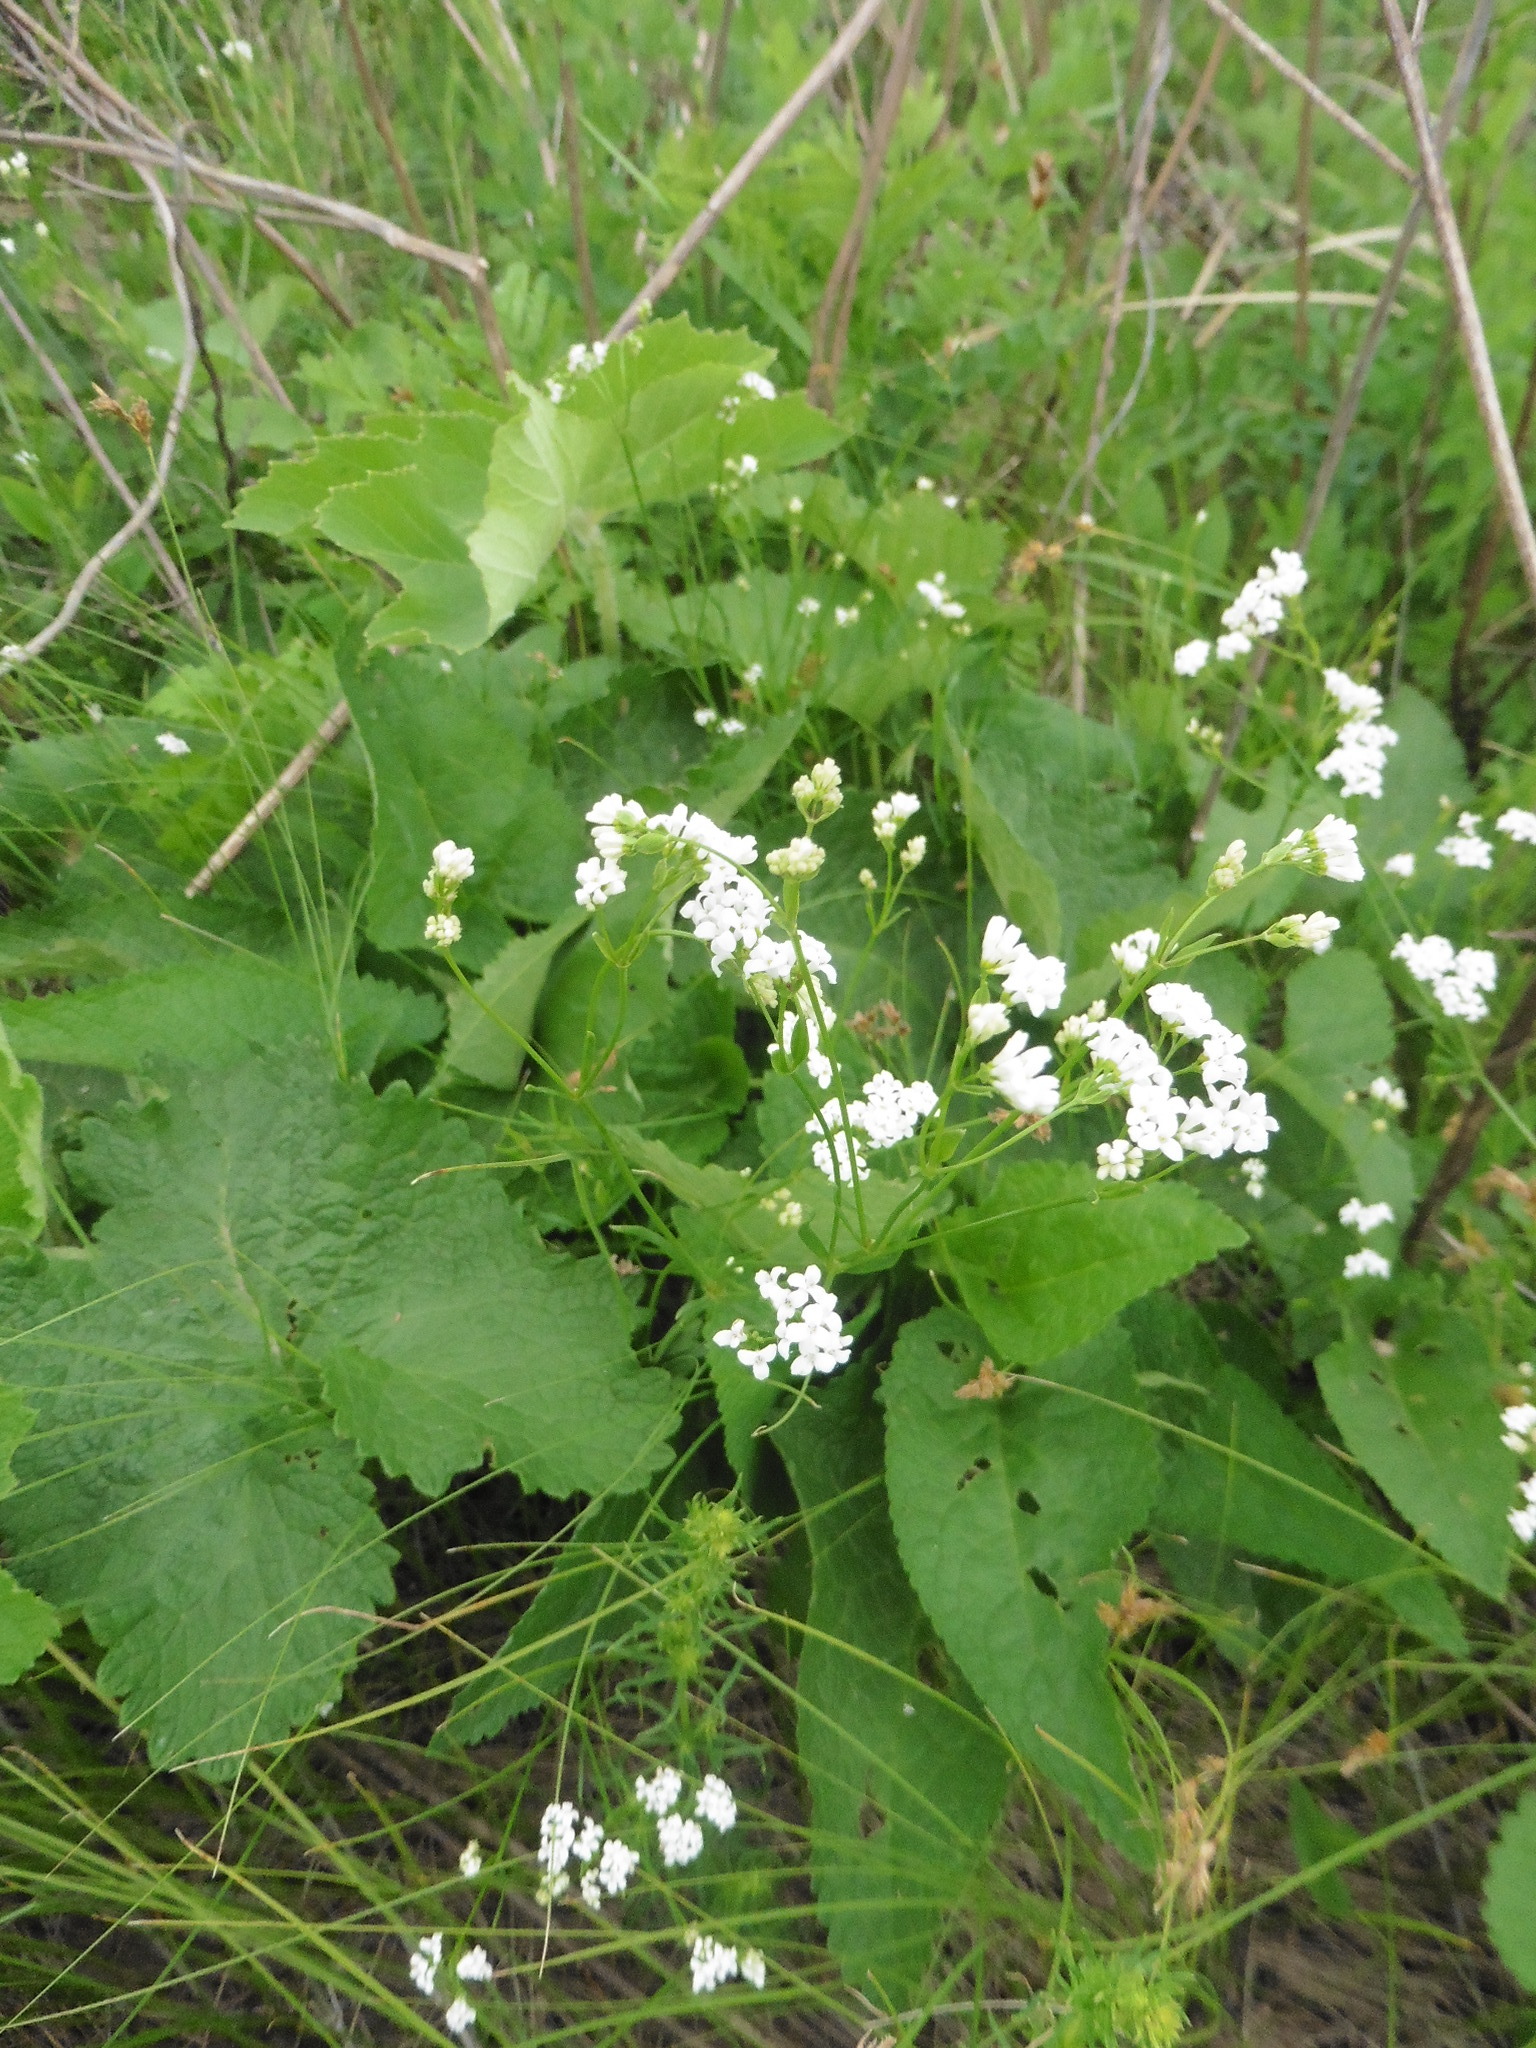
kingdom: Plantae
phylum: Tracheophyta
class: Magnoliopsida
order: Gentianales
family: Rubiaceae
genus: Asperula
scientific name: Asperula tinctoria
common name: Dyer's woodruff
